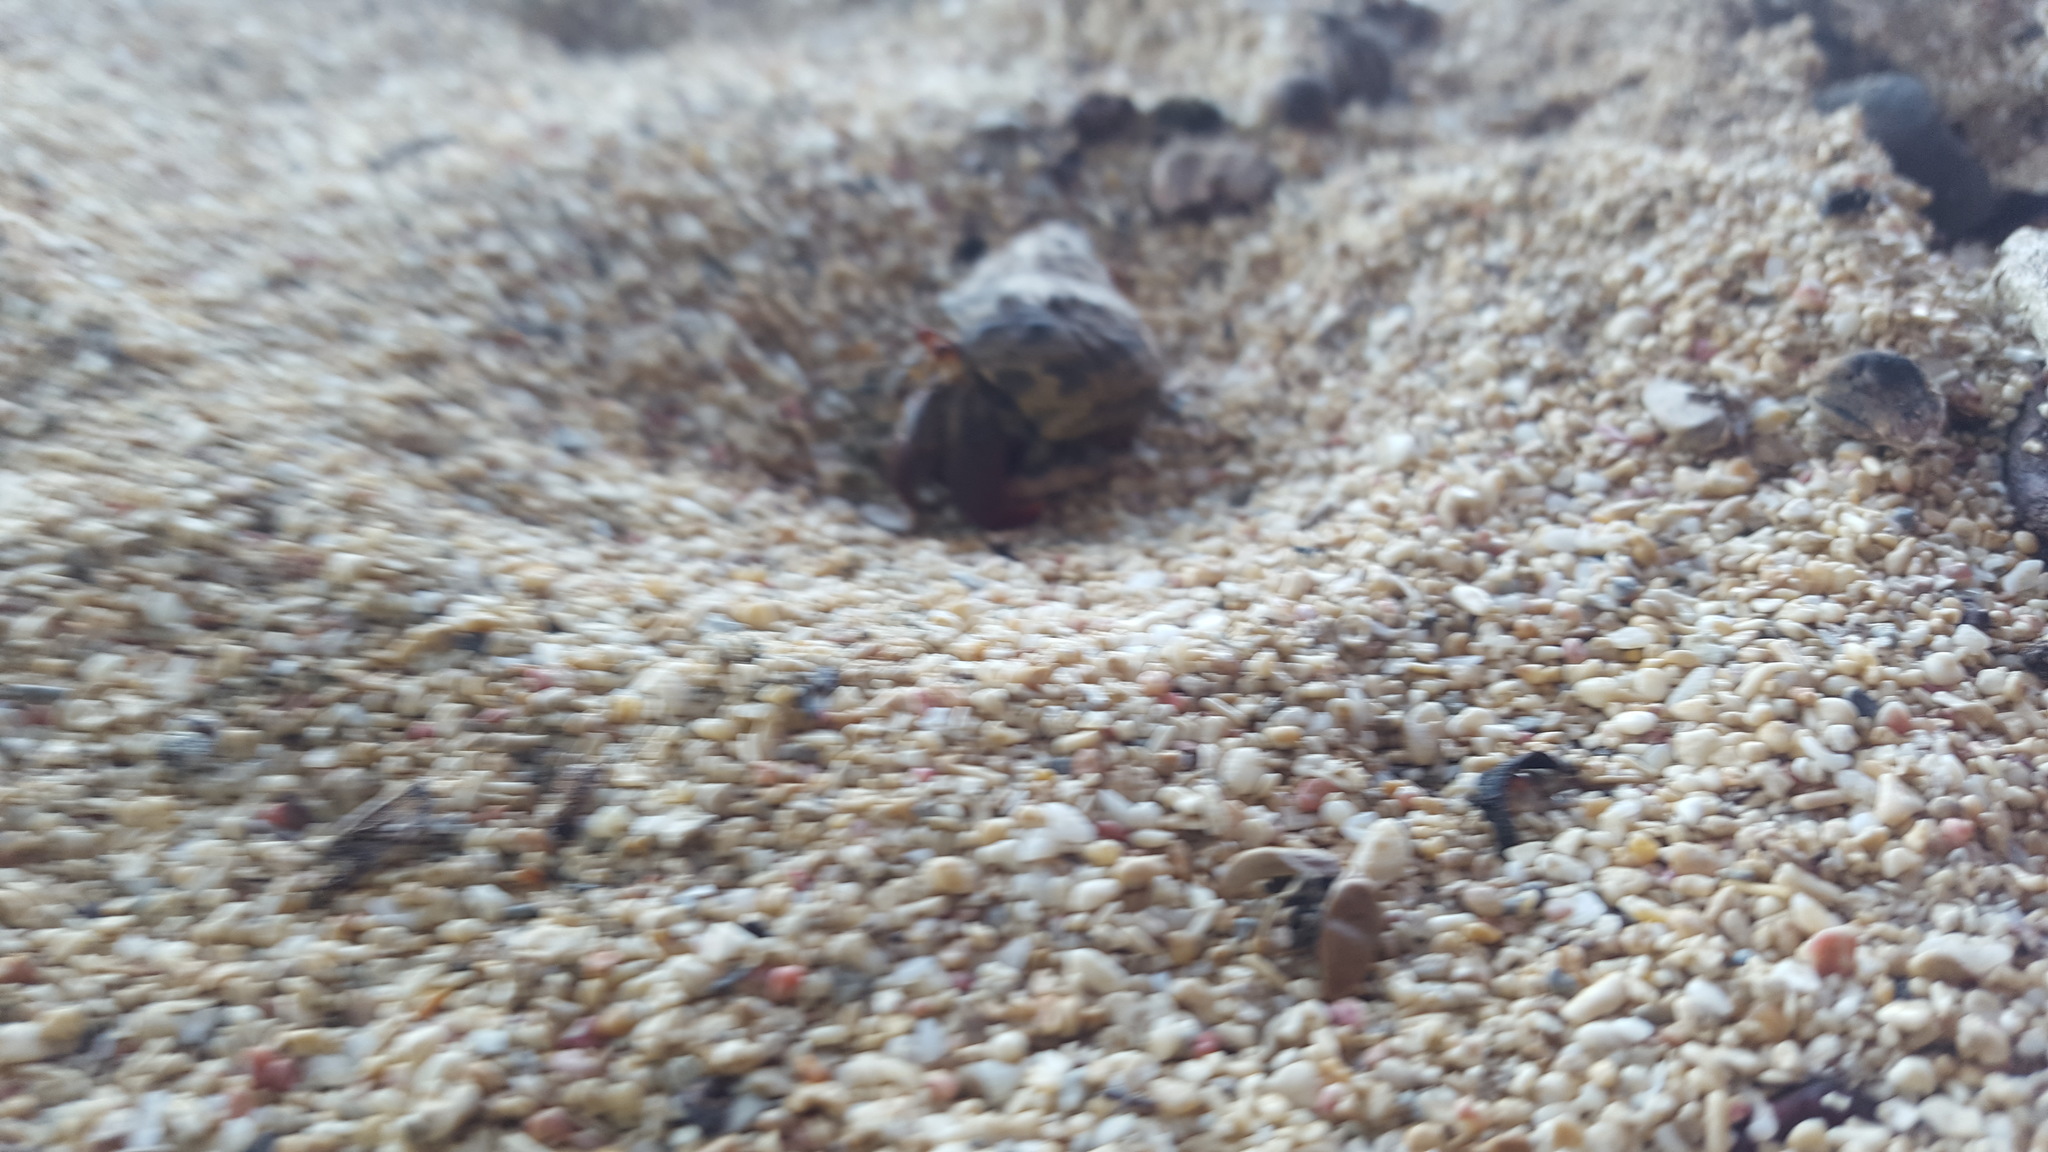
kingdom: Animalia
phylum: Arthropoda
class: Malacostraca
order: Decapoda
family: Coenobitidae
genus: Coenobita
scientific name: Coenobita clypeatus
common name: Caribbean hermit crab
